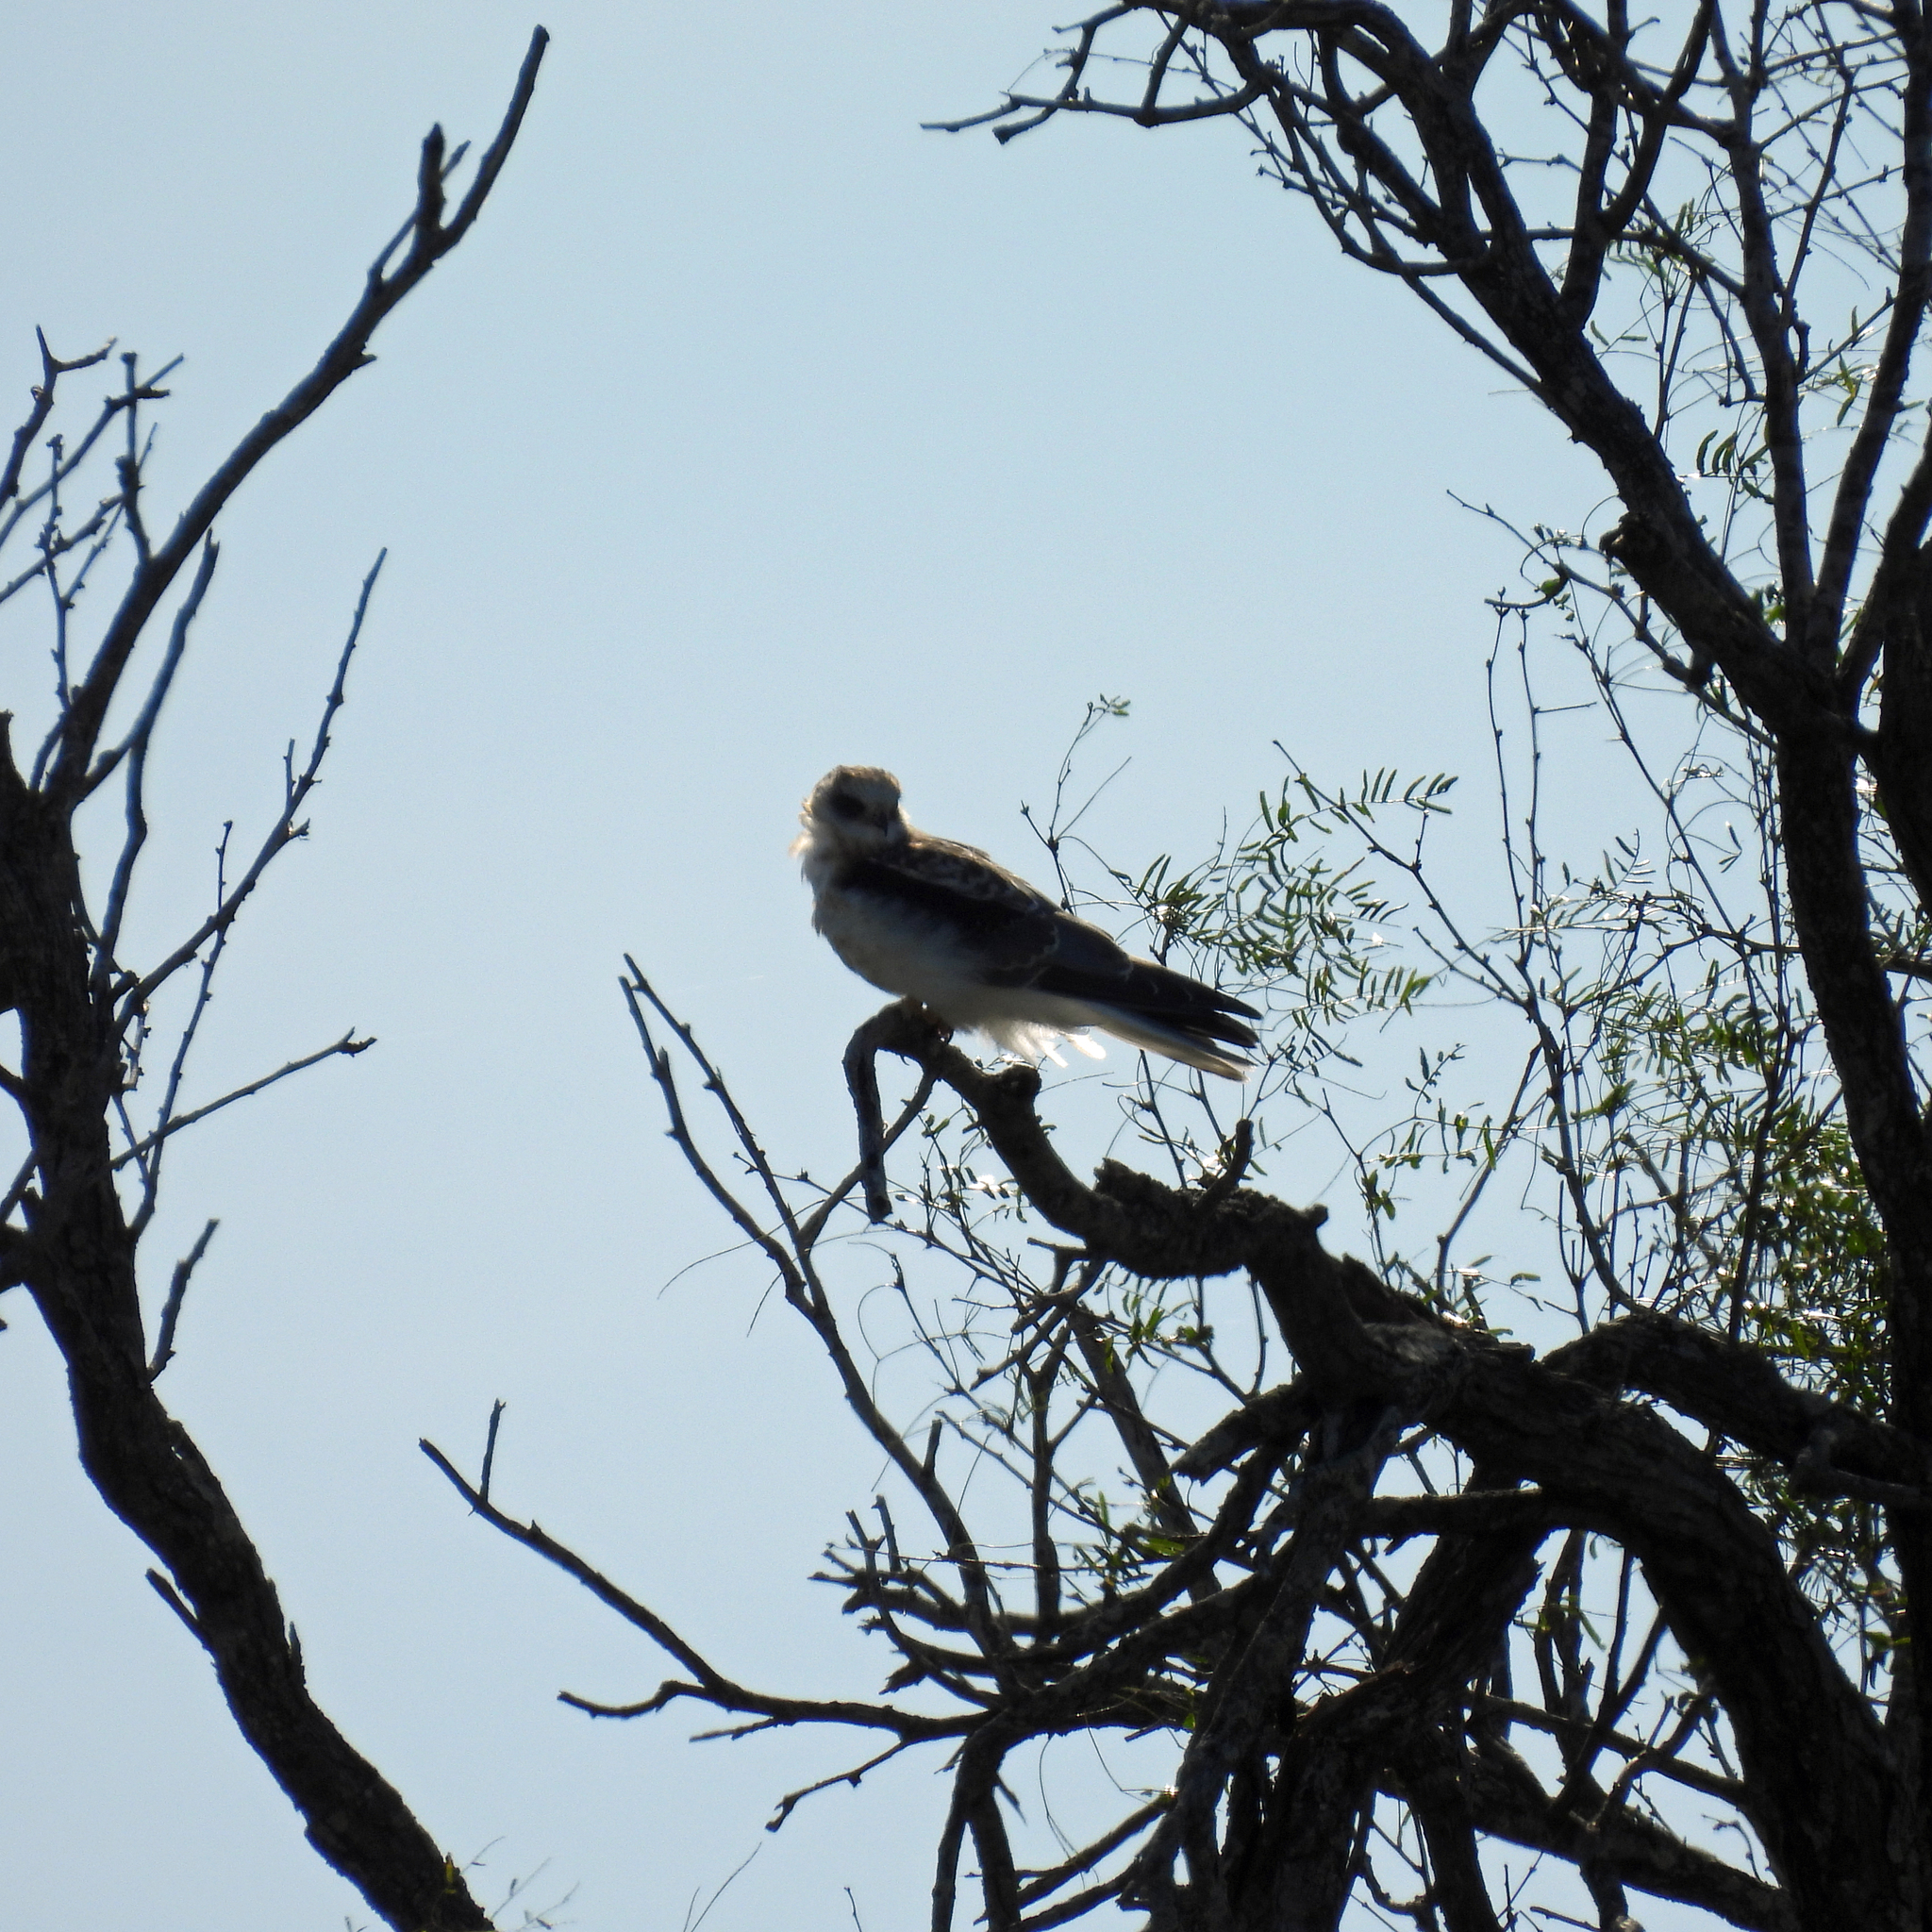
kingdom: Animalia
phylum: Chordata
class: Aves
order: Accipitriformes
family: Accipitridae
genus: Elanus
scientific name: Elanus leucurus
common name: White-tailed kite
